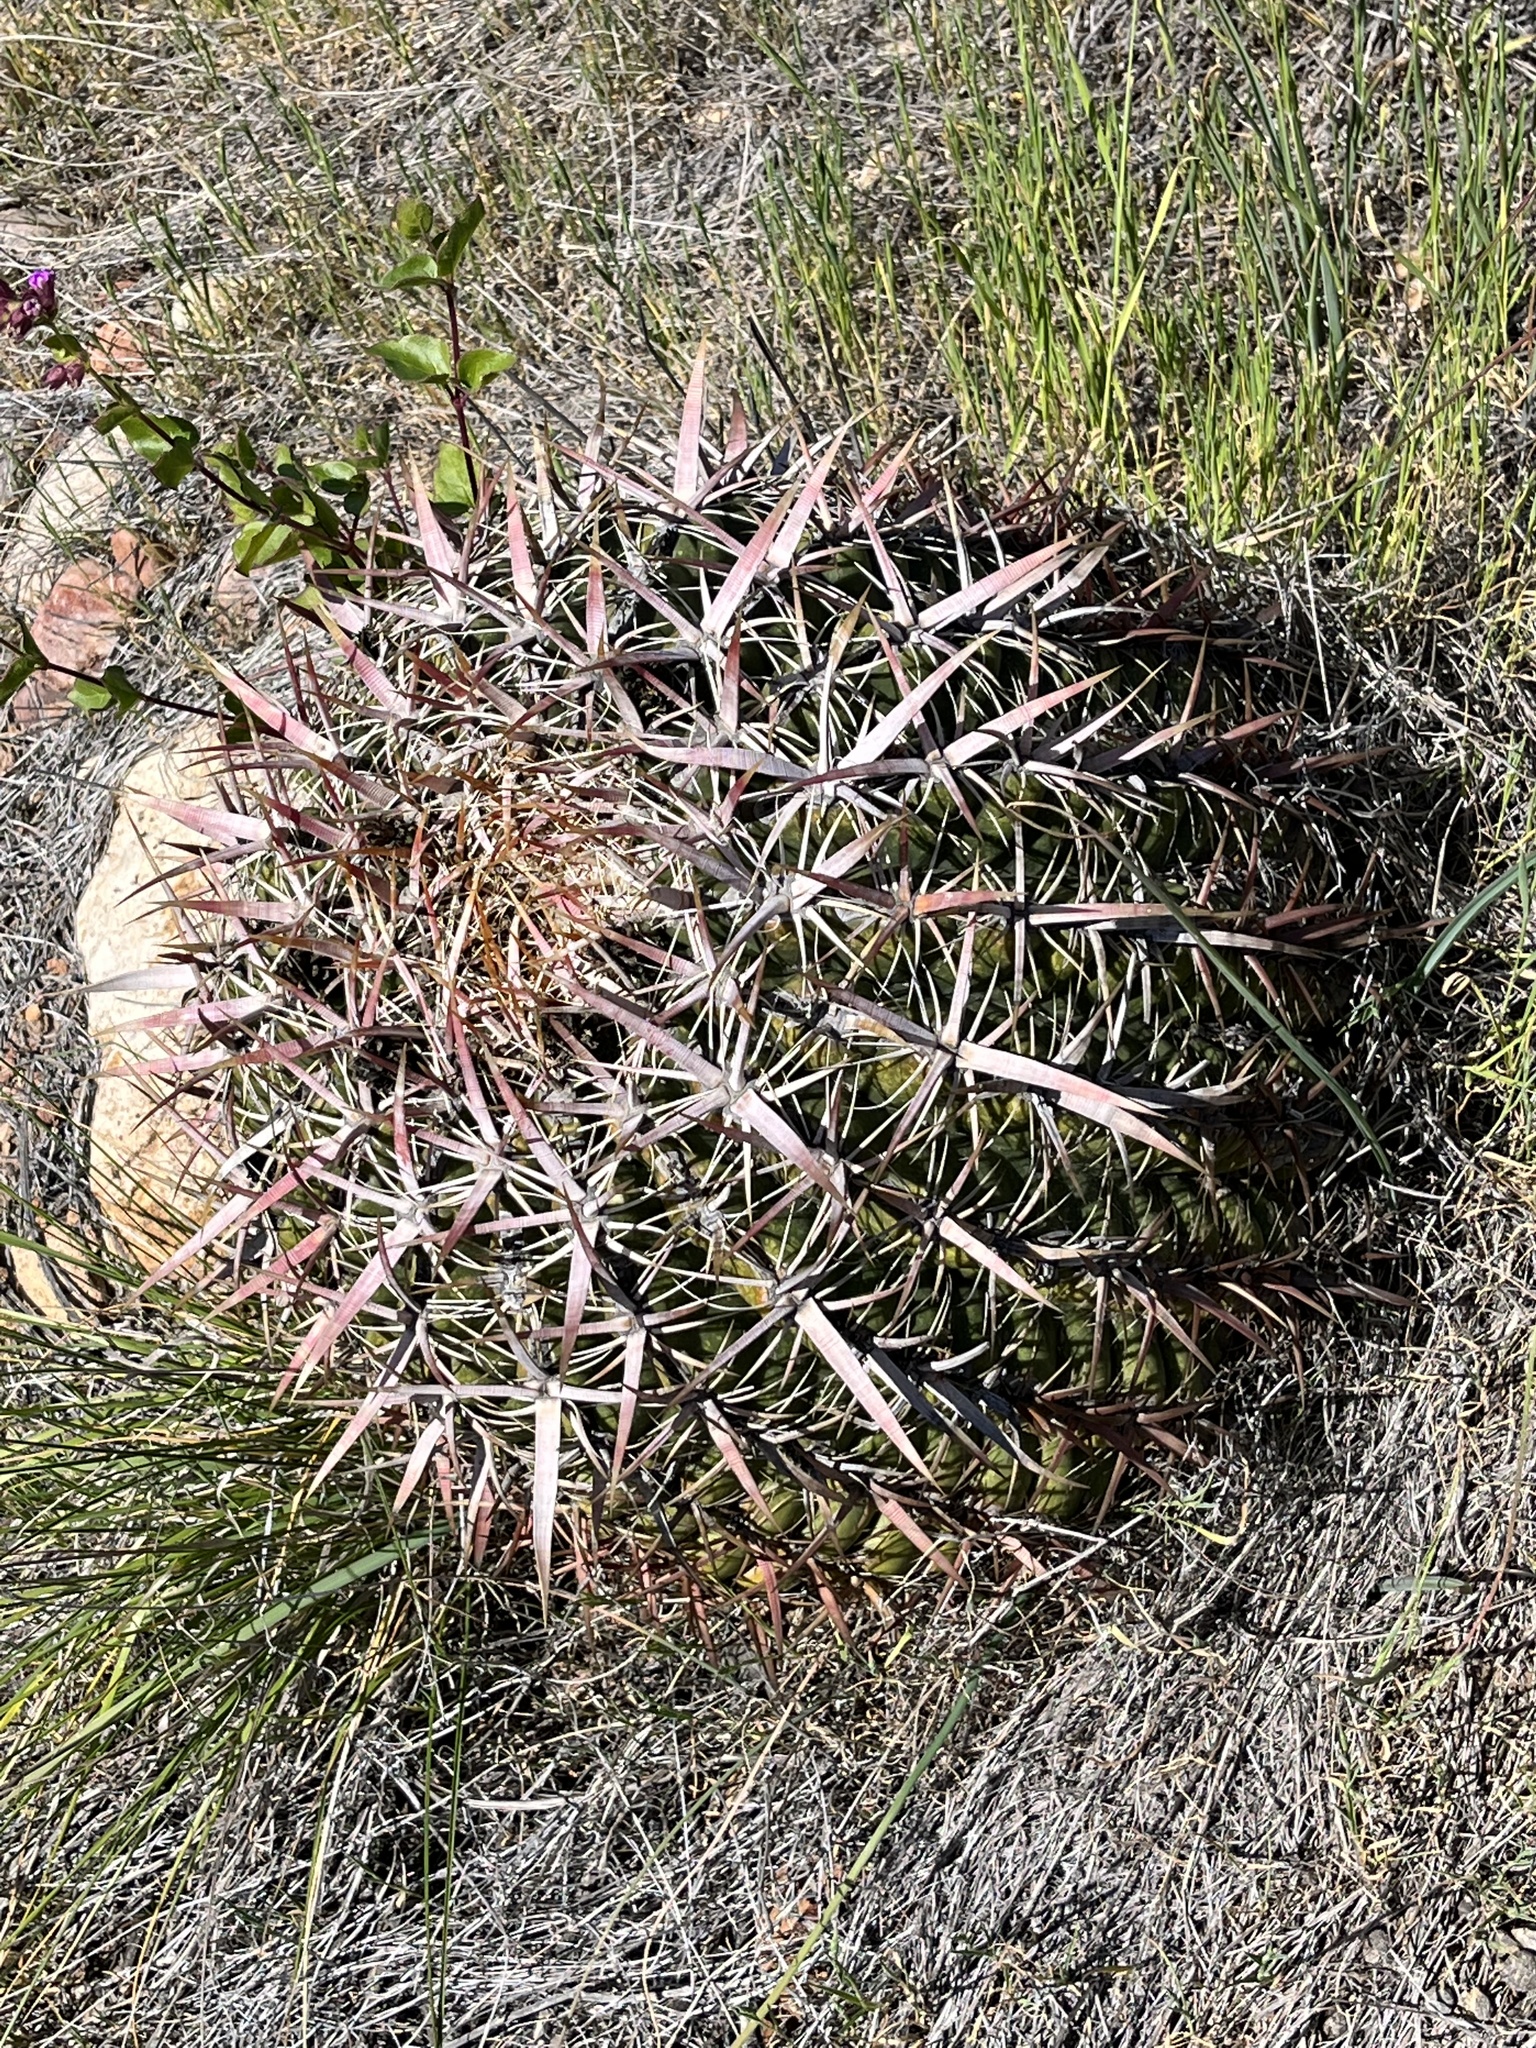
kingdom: Plantae
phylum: Tracheophyta
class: Magnoliopsida
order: Caryophyllales
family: Cactaceae
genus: Ferocactus
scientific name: Ferocactus viridescens
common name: San diego barrel cactus
